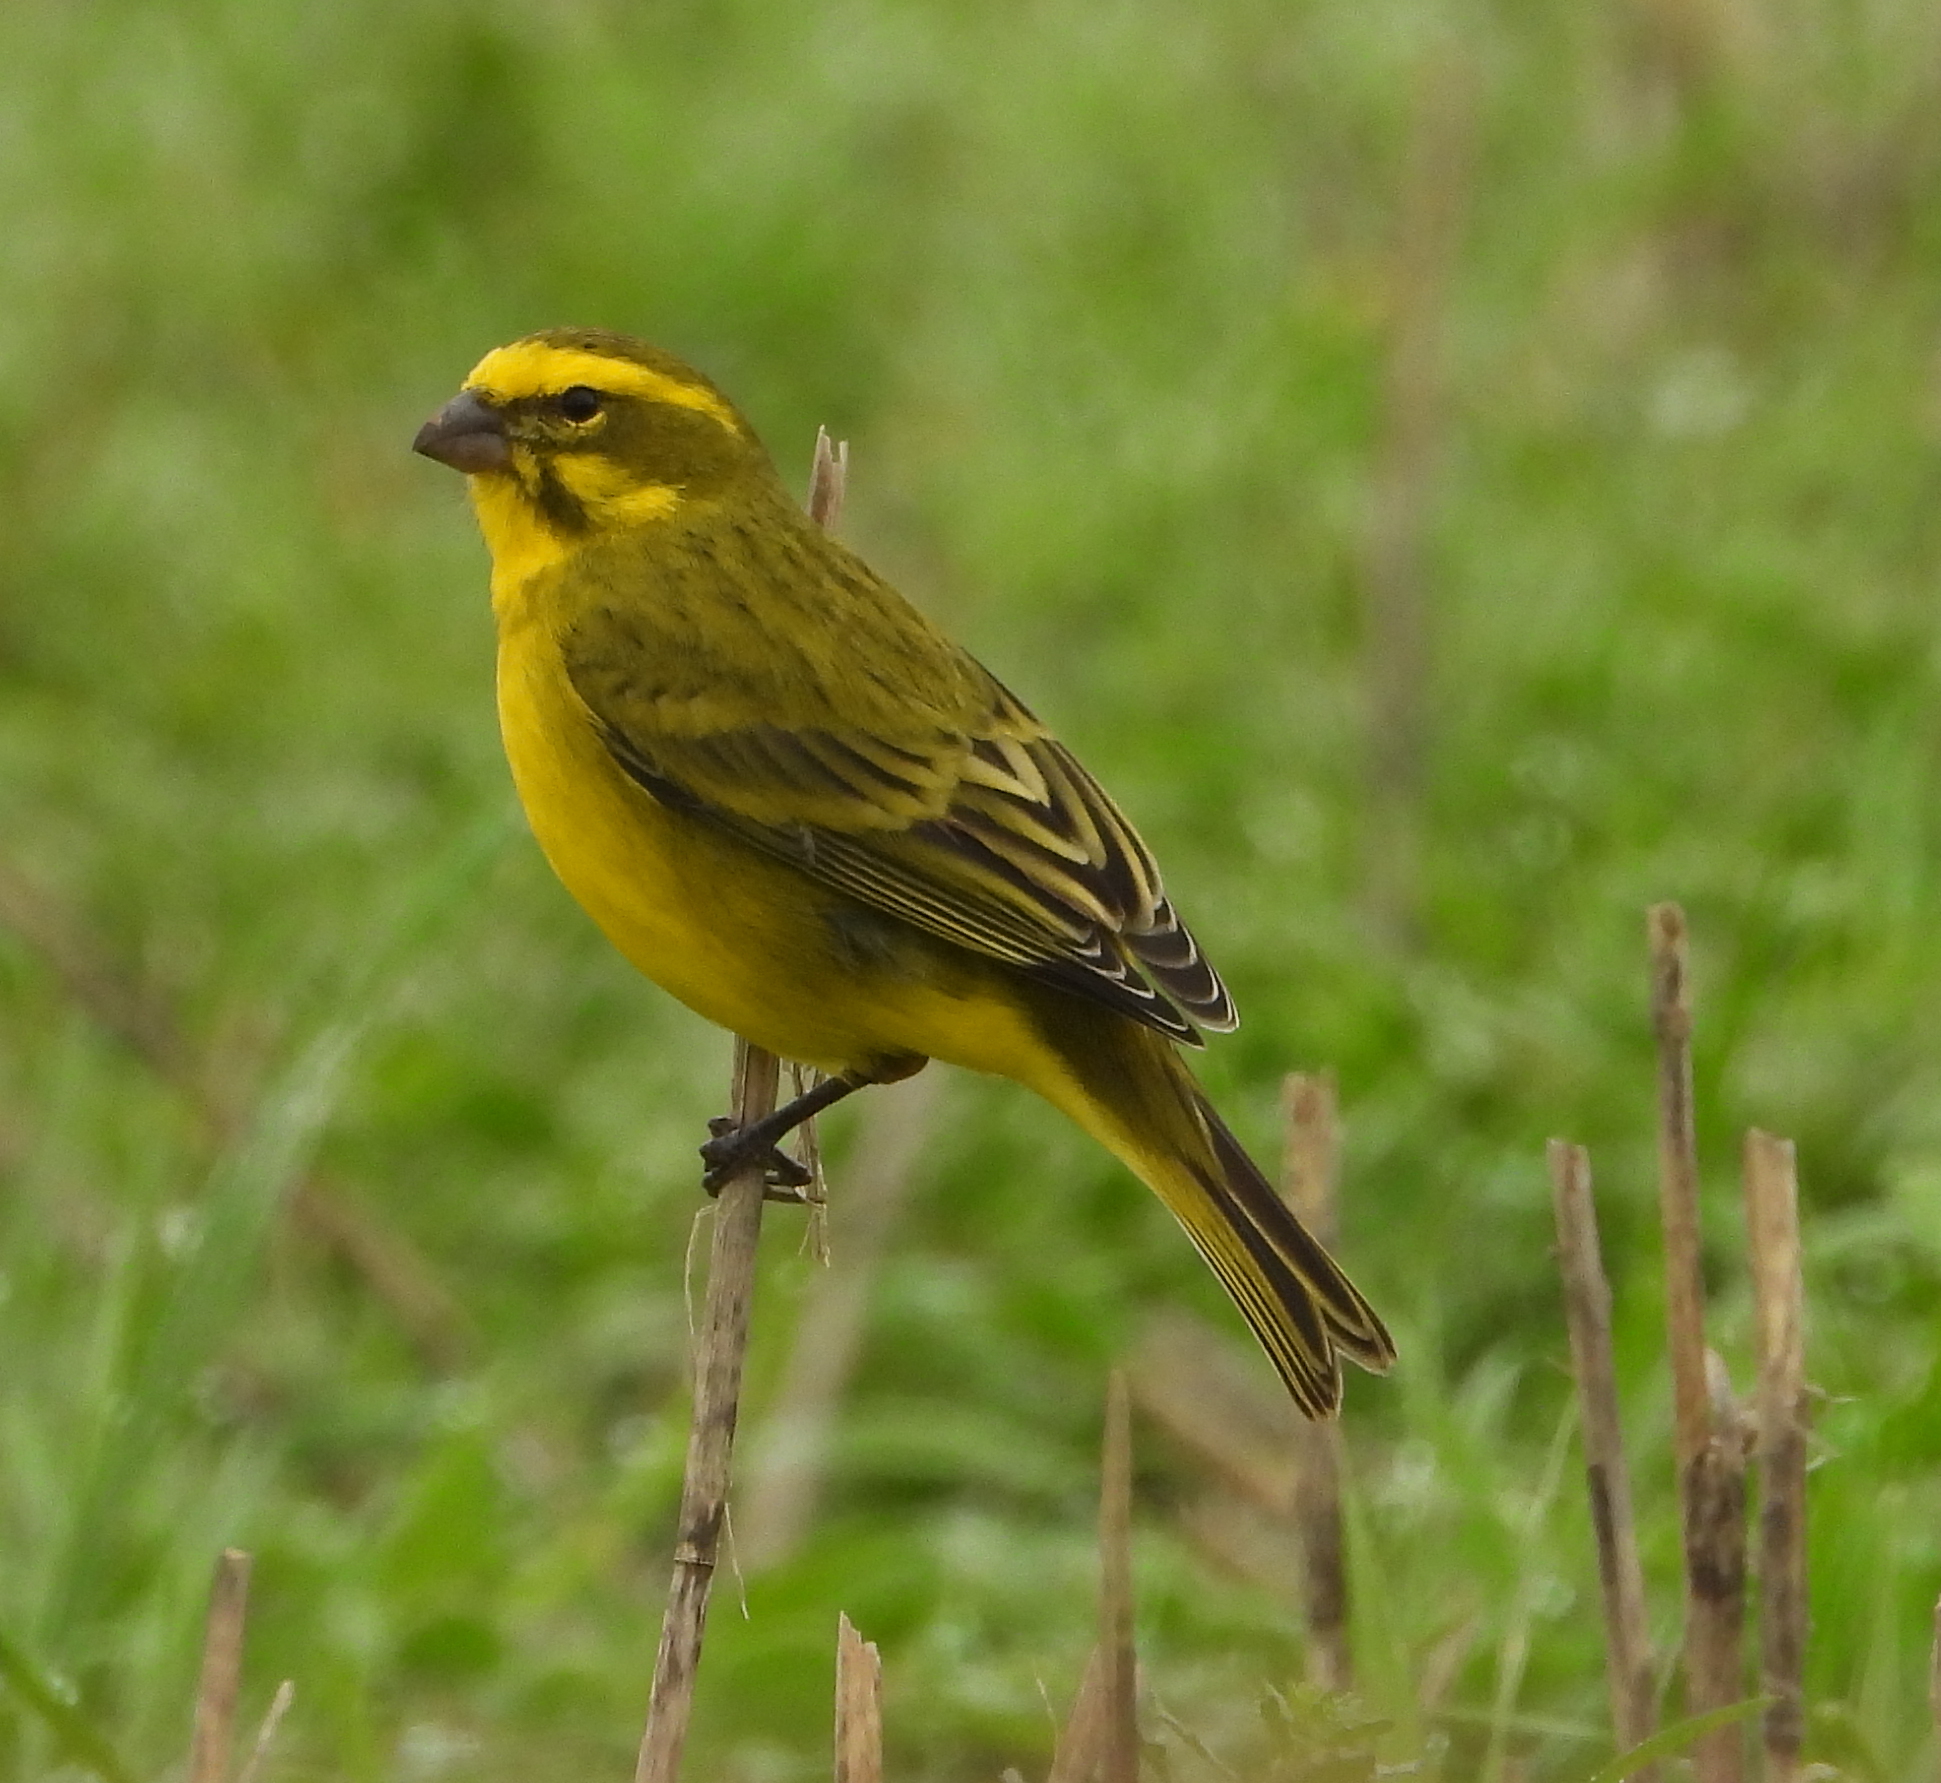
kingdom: Animalia
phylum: Chordata
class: Aves
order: Passeriformes
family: Fringillidae
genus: Crithagra
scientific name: Crithagra flaviventris
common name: Yellow canary
